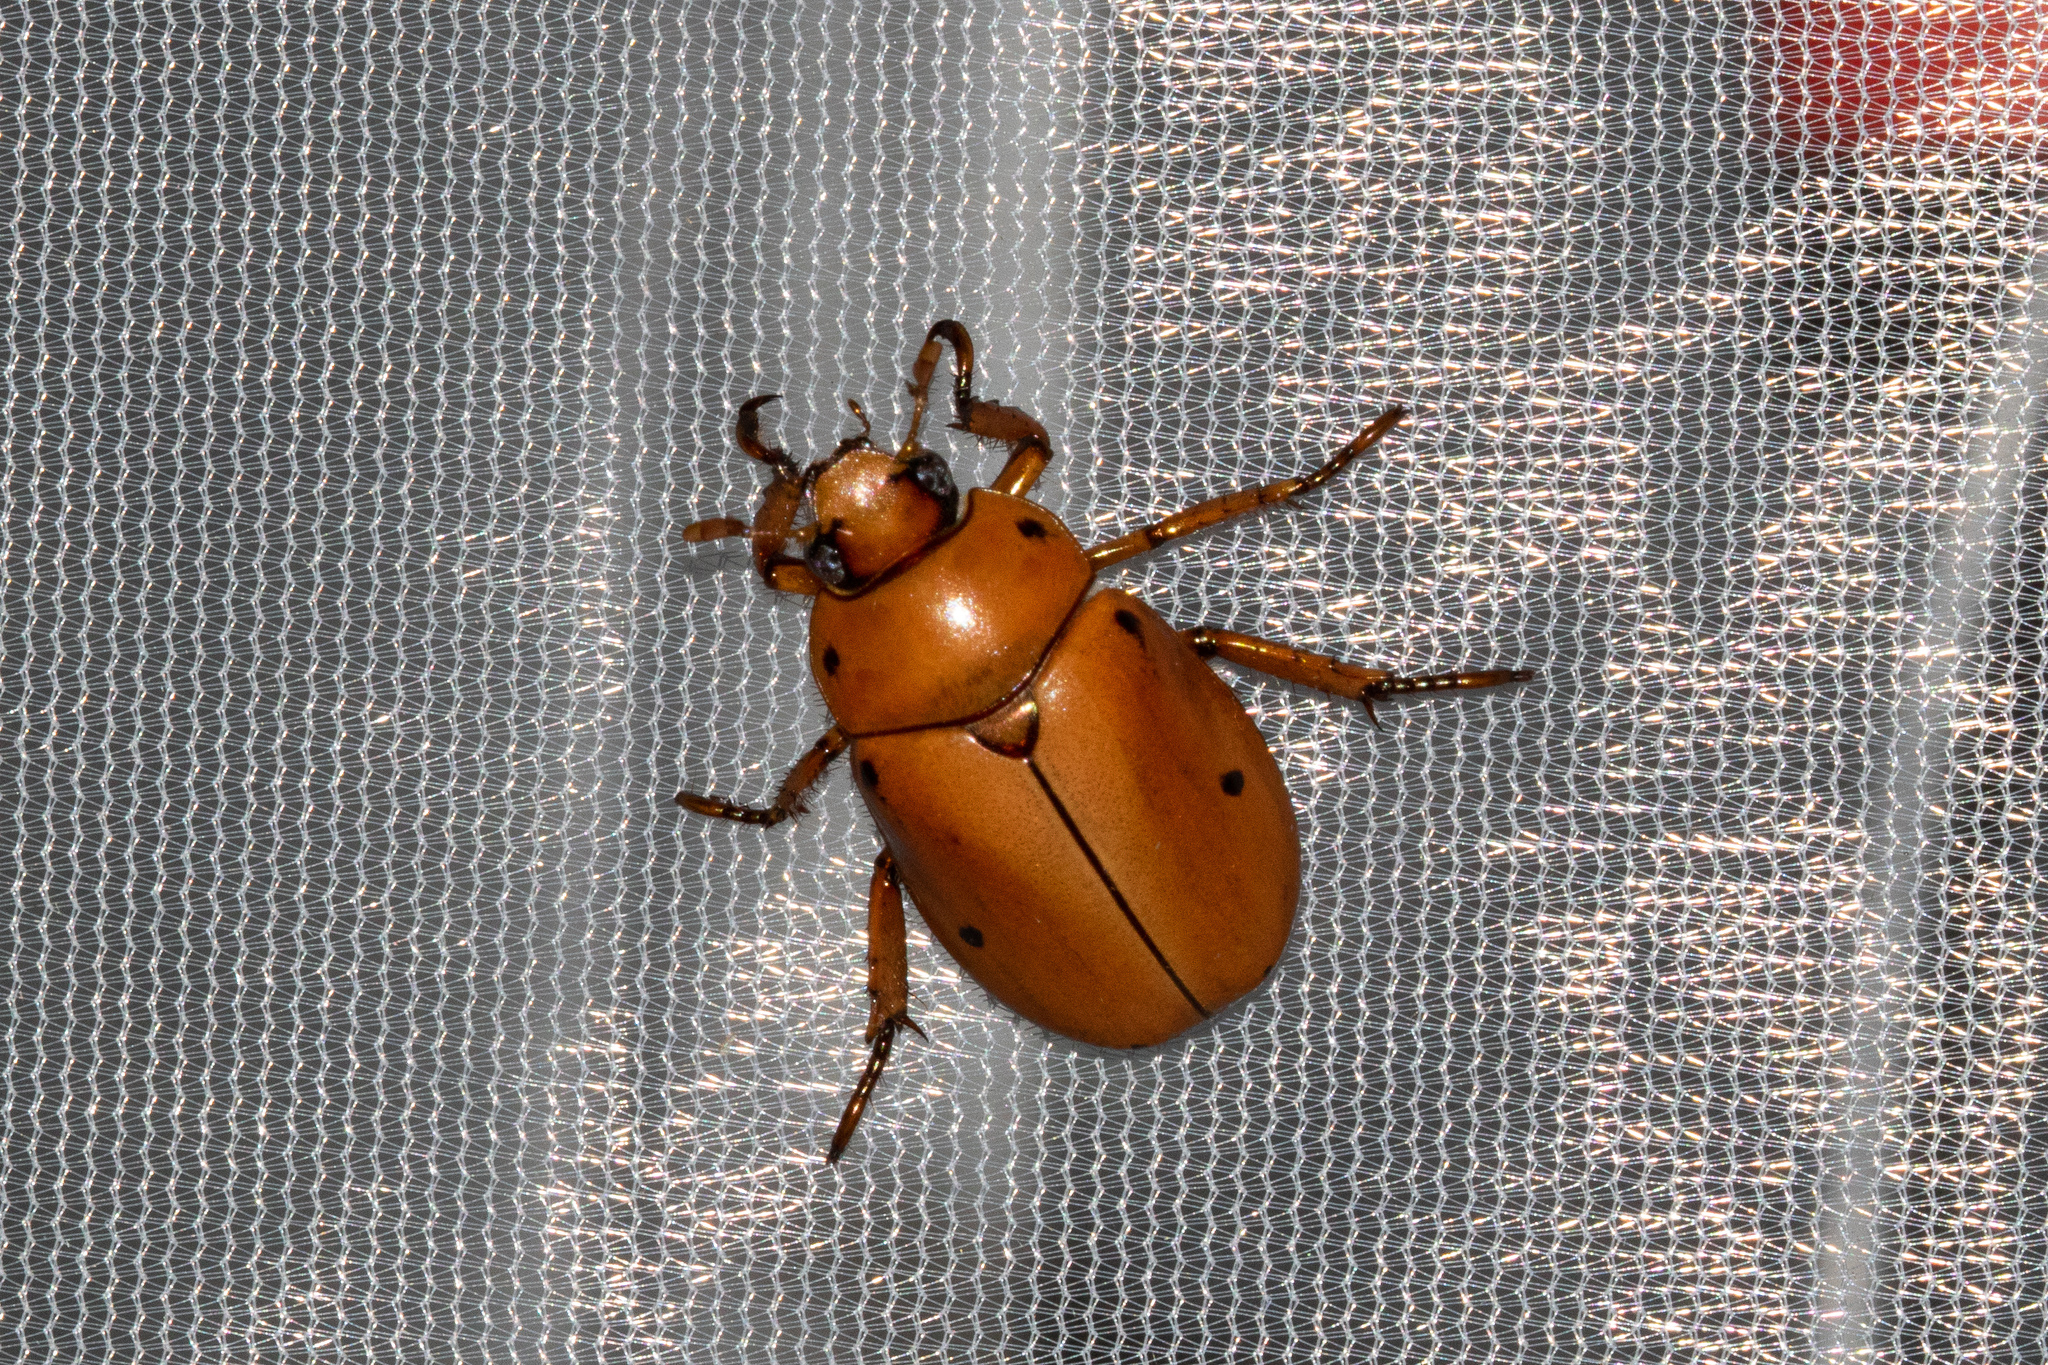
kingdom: Animalia
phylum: Arthropoda
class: Insecta
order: Coleoptera
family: Scarabaeidae
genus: Pelidnota
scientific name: Pelidnota punctata
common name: Grapevine beetle
